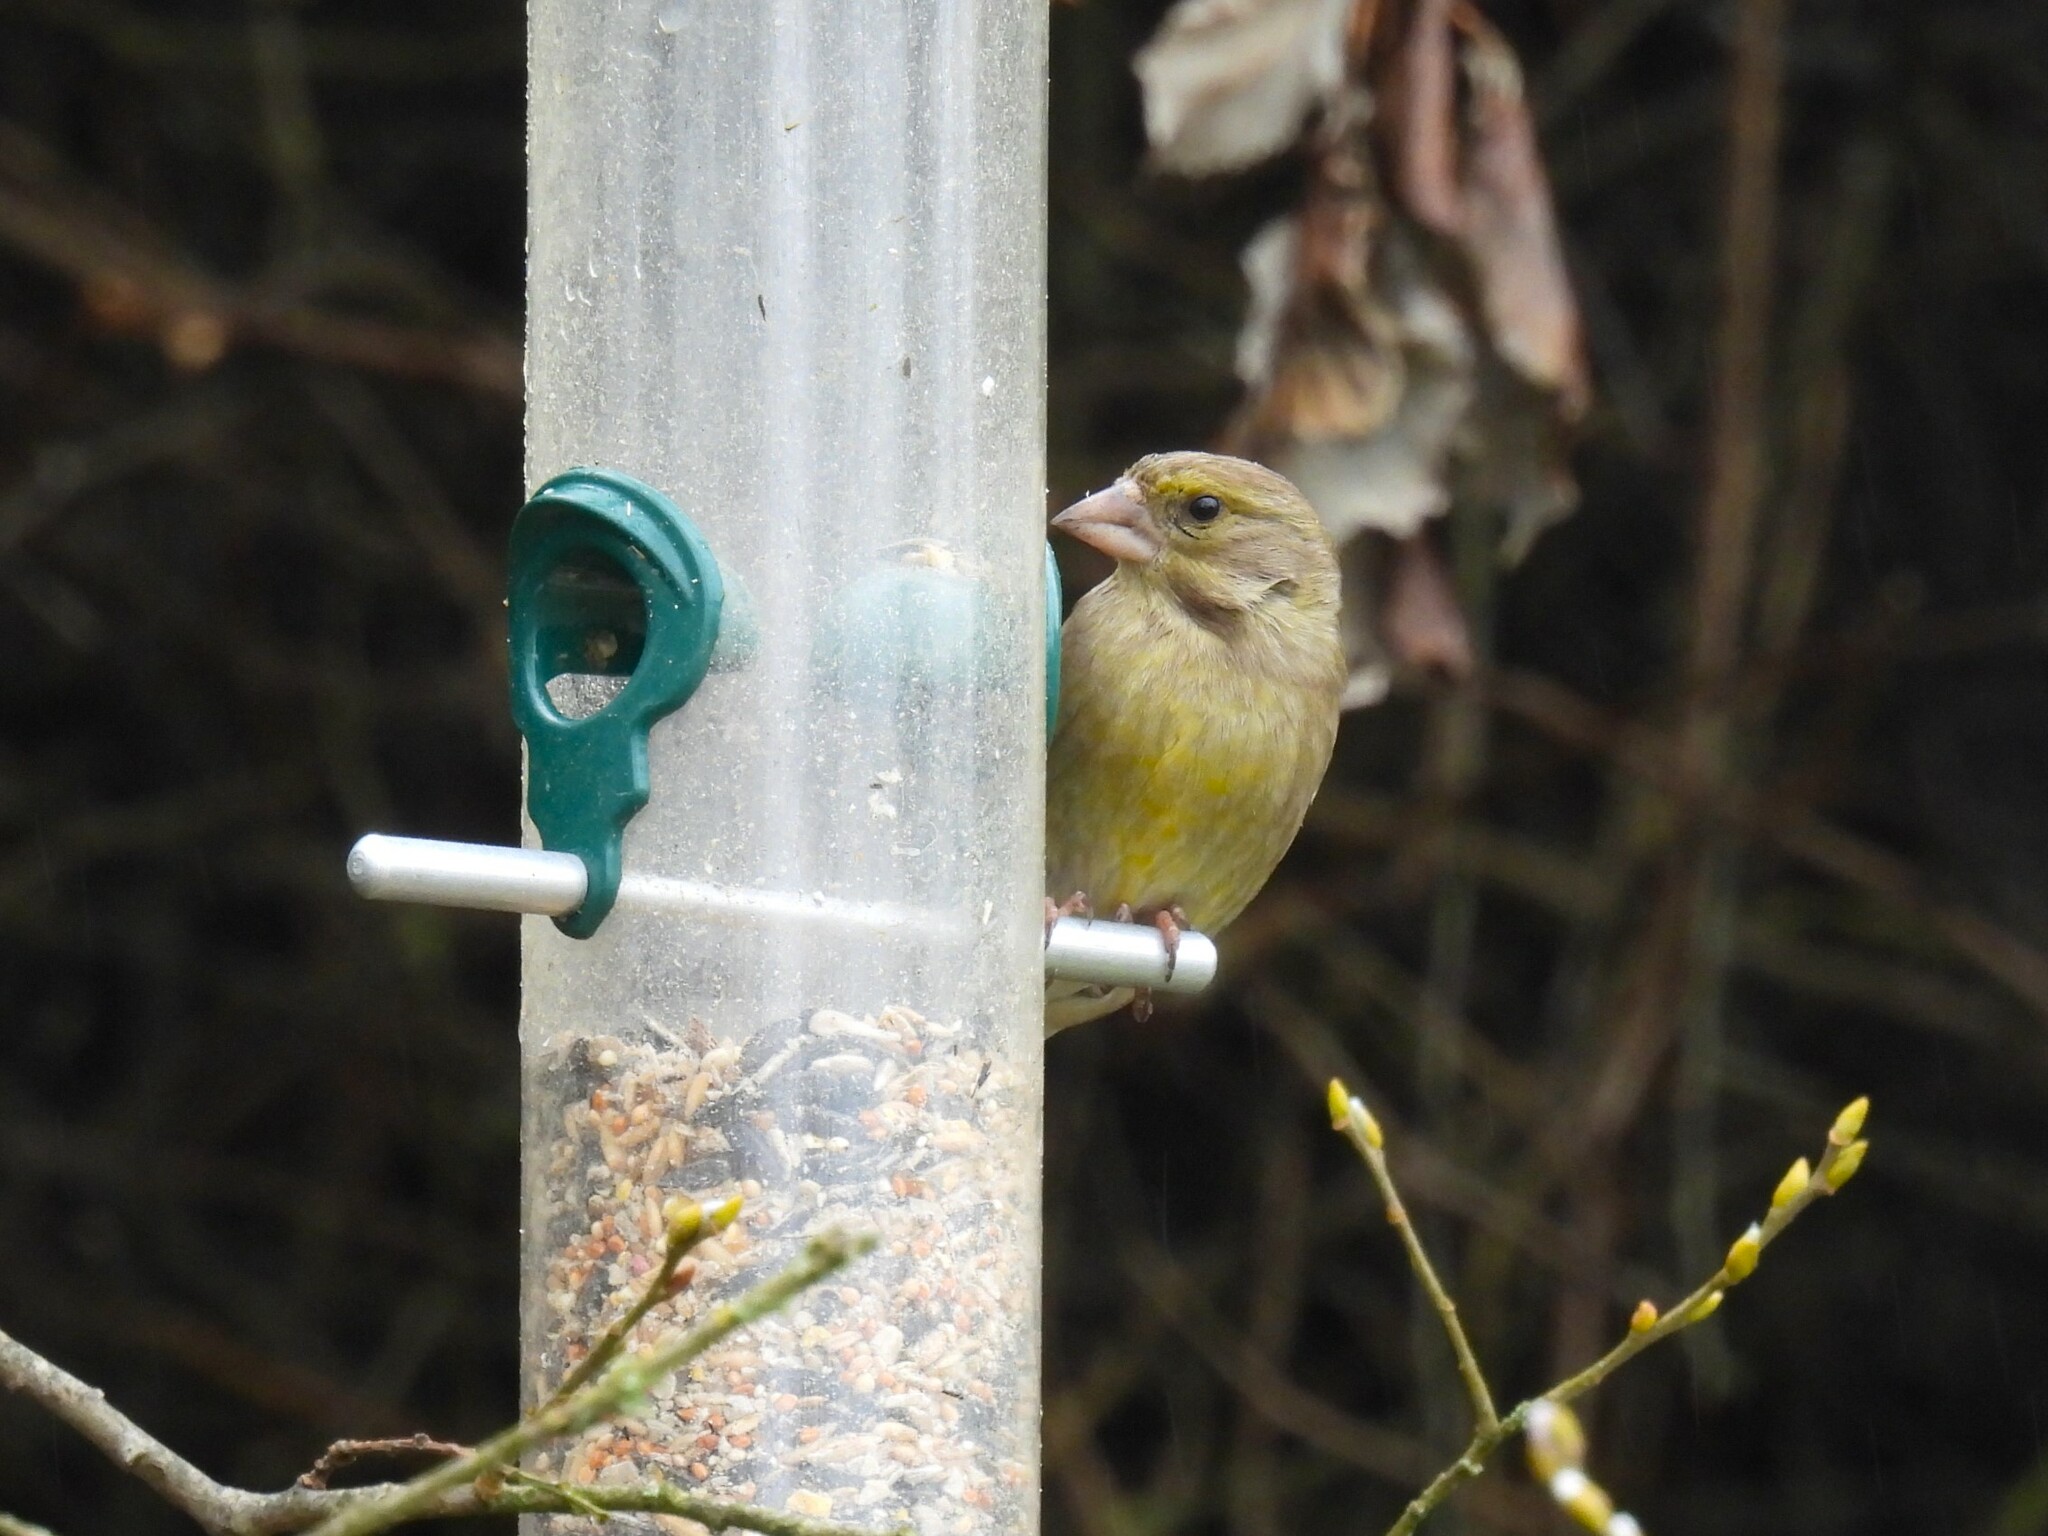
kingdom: Plantae
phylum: Tracheophyta
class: Liliopsida
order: Poales
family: Poaceae
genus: Chloris
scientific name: Chloris chloris
